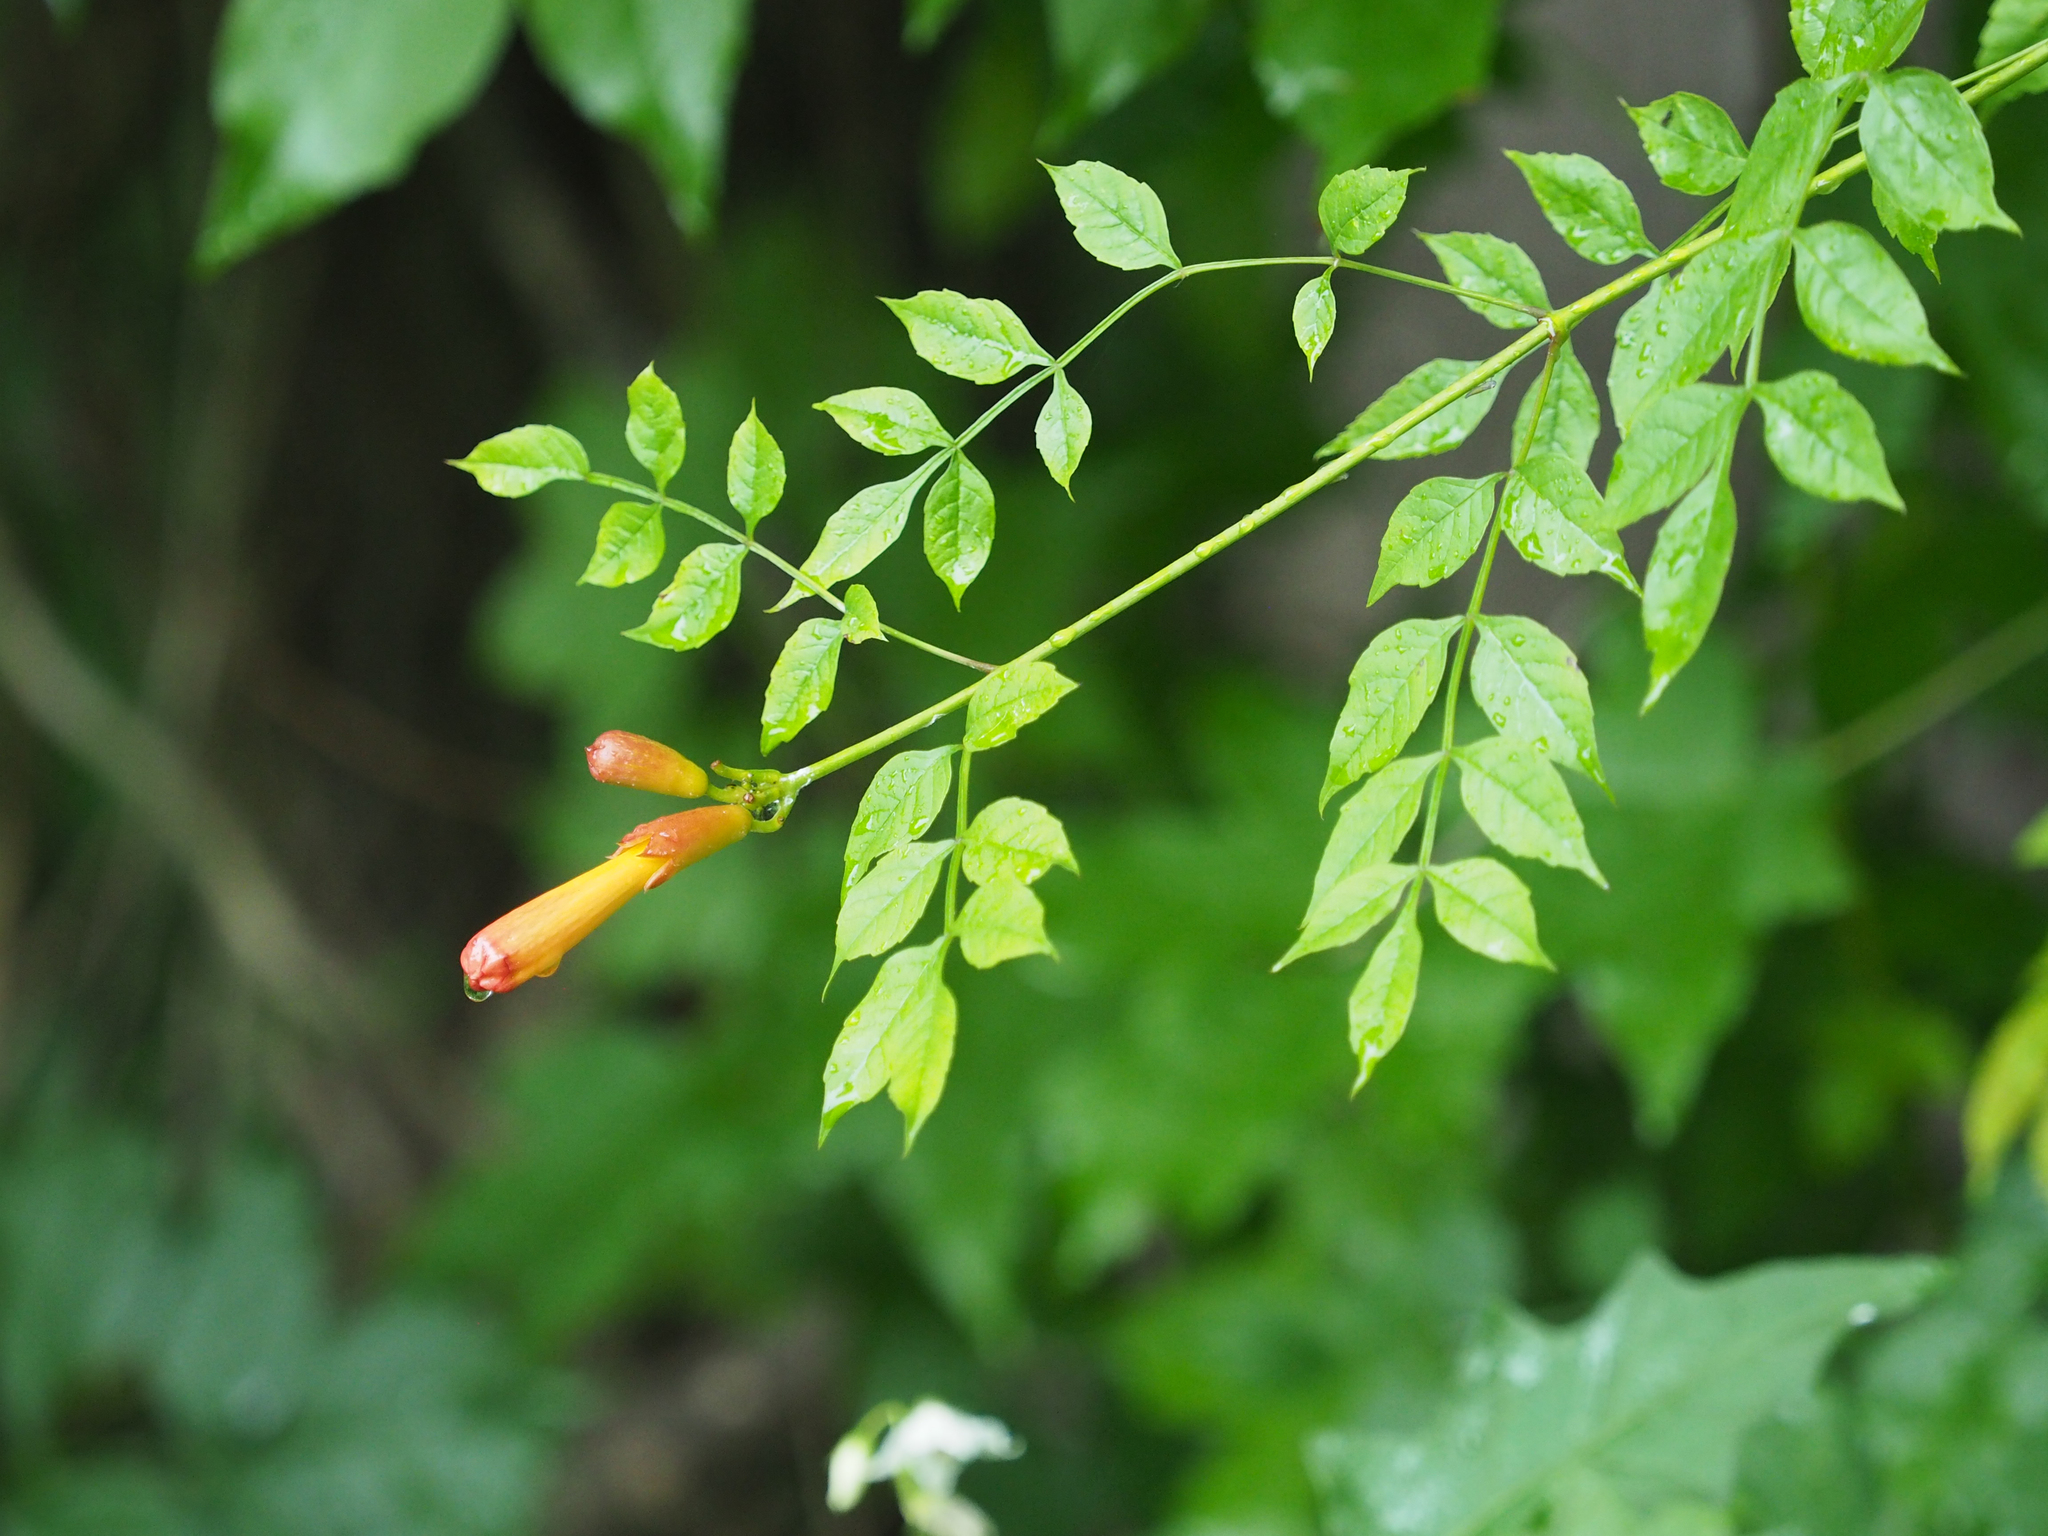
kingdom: Plantae
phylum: Tracheophyta
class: Magnoliopsida
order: Lamiales
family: Bignoniaceae
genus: Campsis
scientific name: Campsis radicans
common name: Trumpet-creeper
